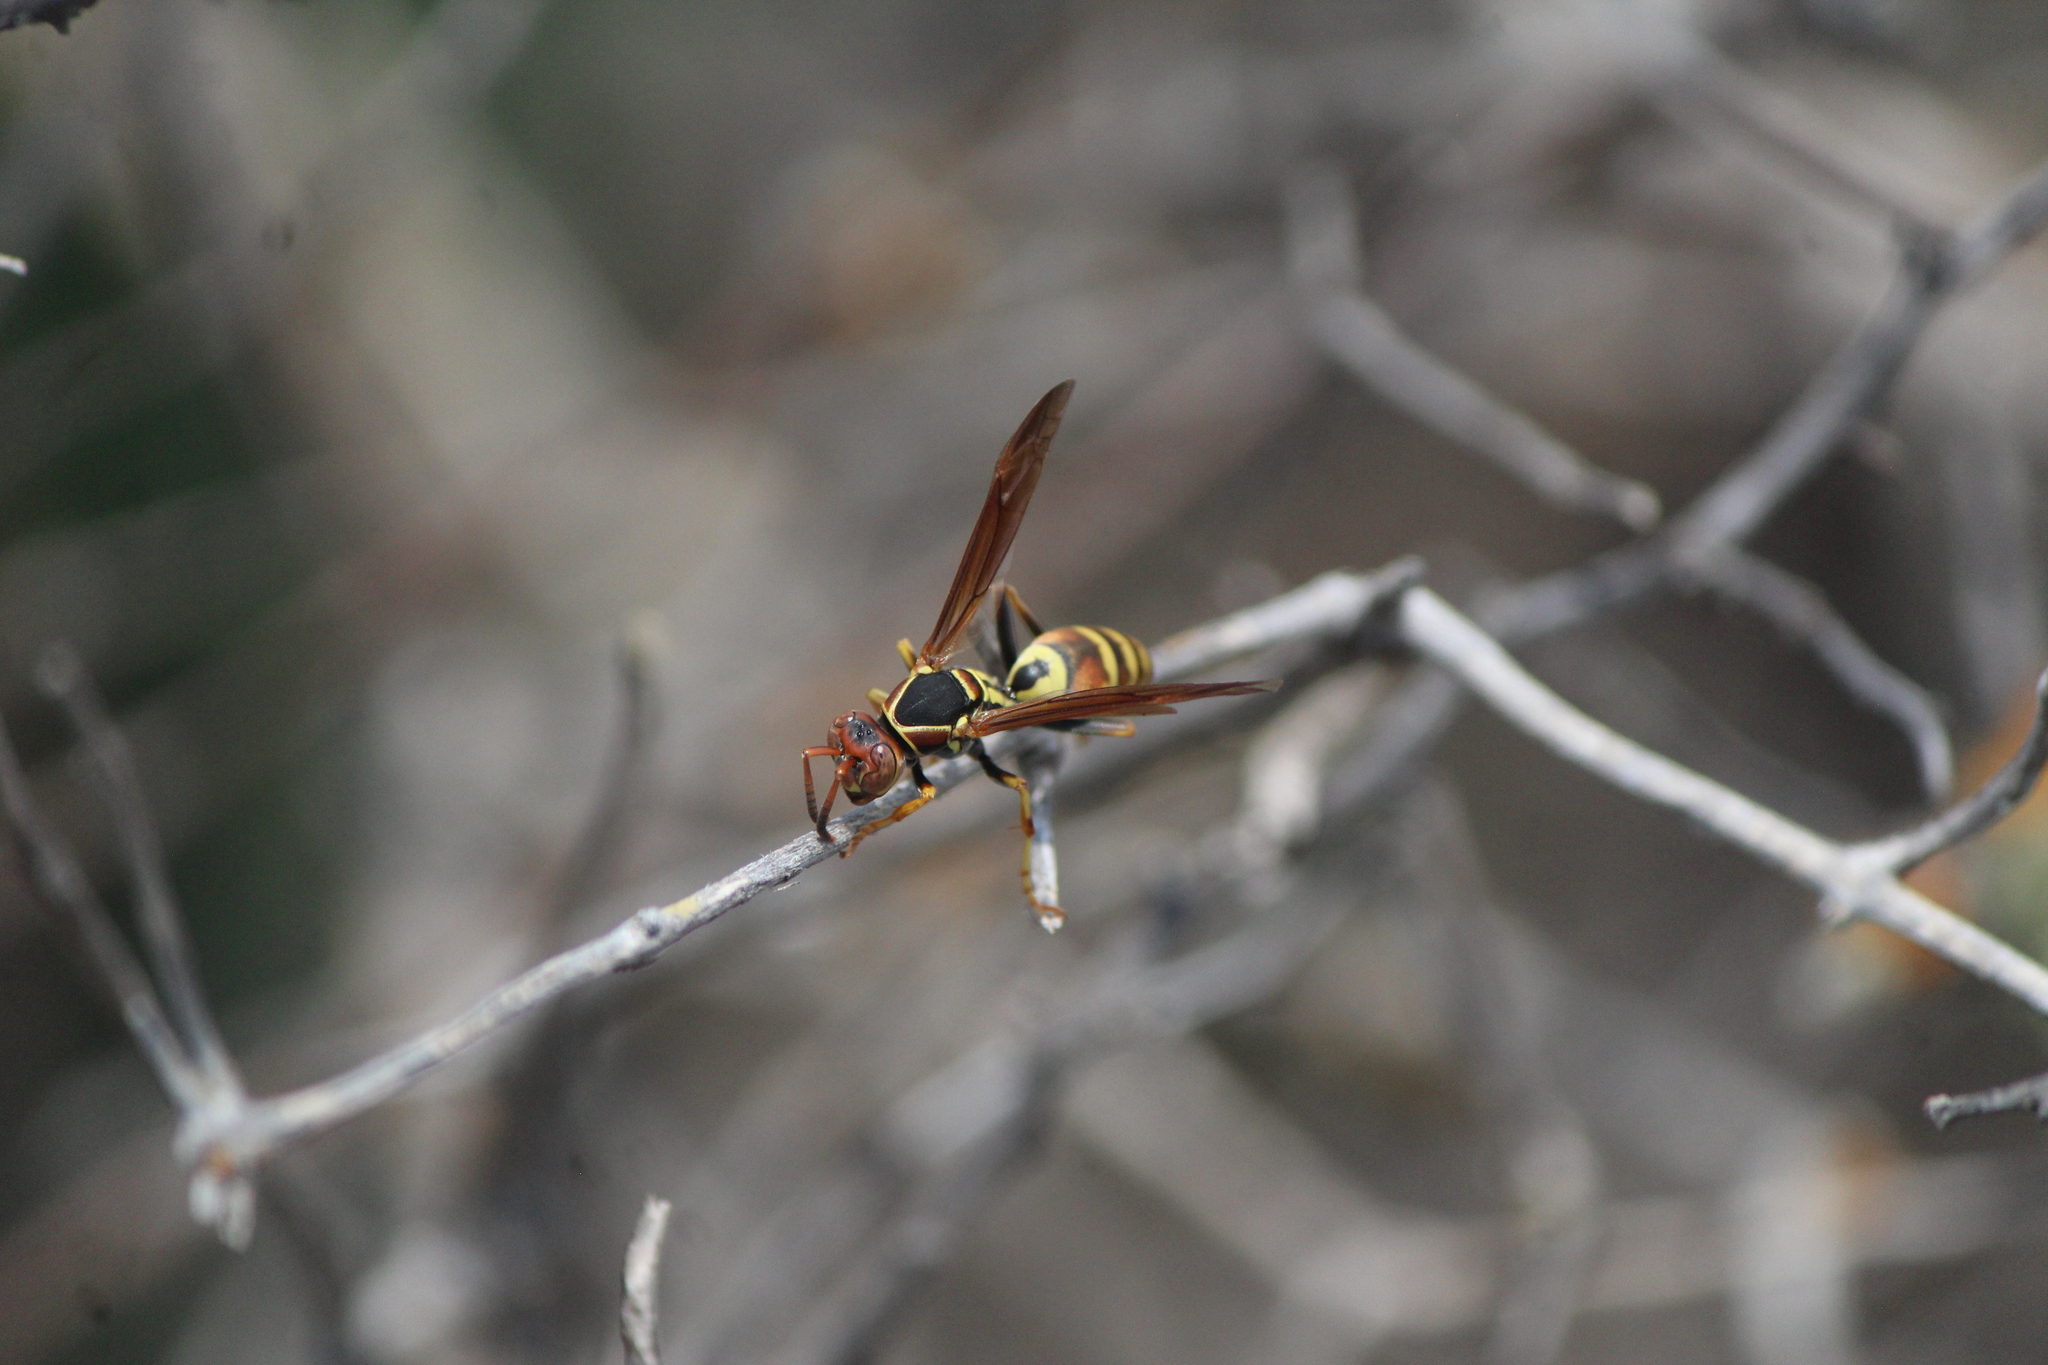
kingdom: Animalia
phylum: Arthropoda
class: Insecta
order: Hymenoptera
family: Eumenidae
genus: Polistes
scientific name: Polistes dorsalis
